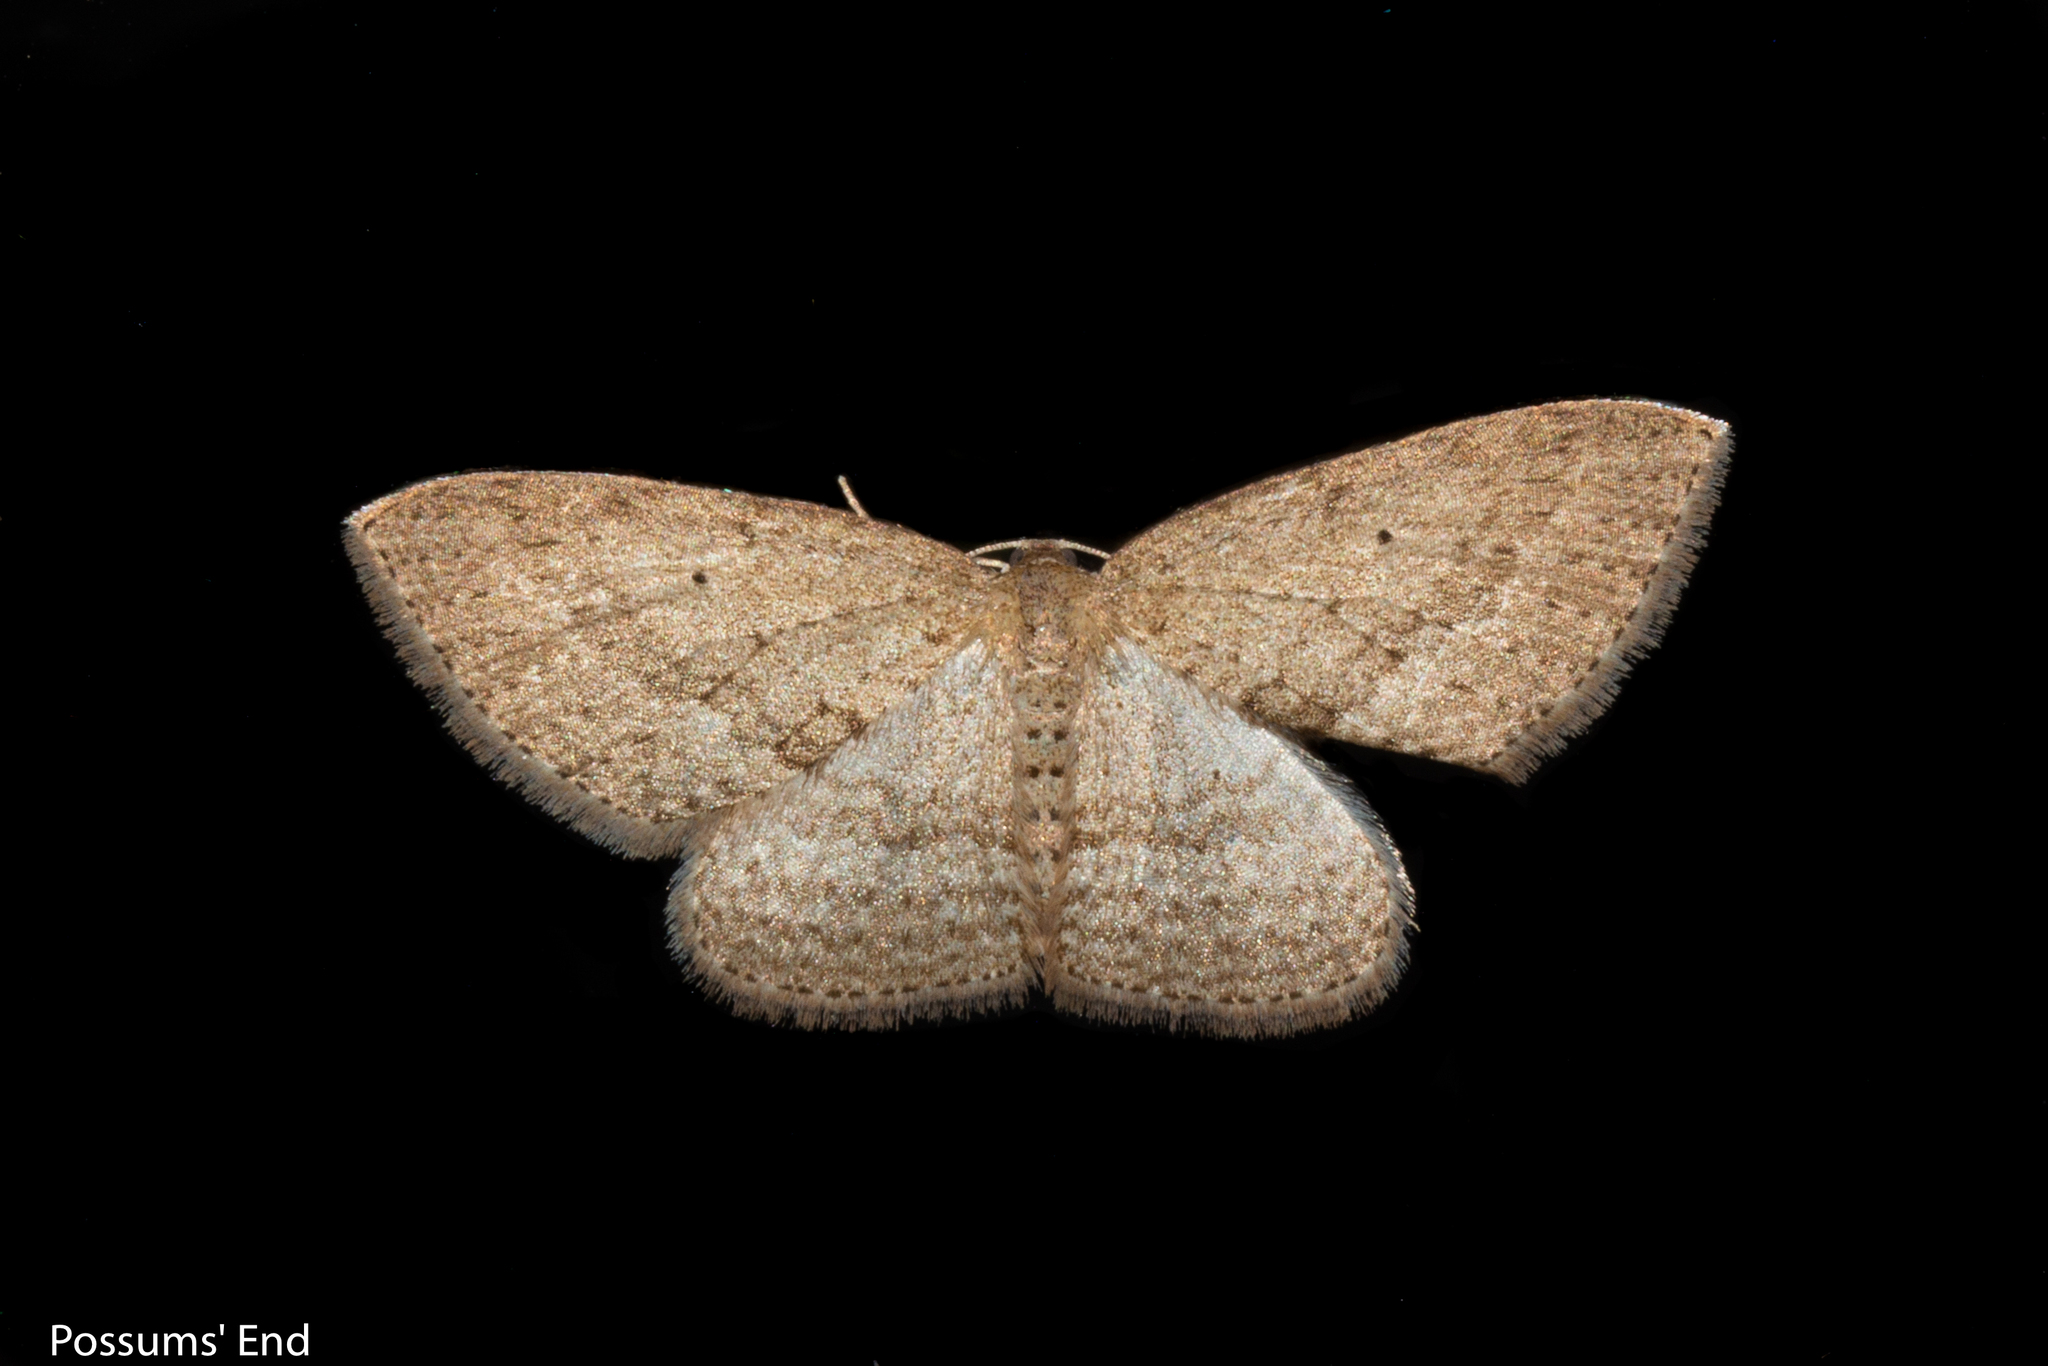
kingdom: Animalia
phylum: Arthropoda
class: Insecta
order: Lepidoptera
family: Geometridae
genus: Poecilasthena
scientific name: Poecilasthena schistaria
